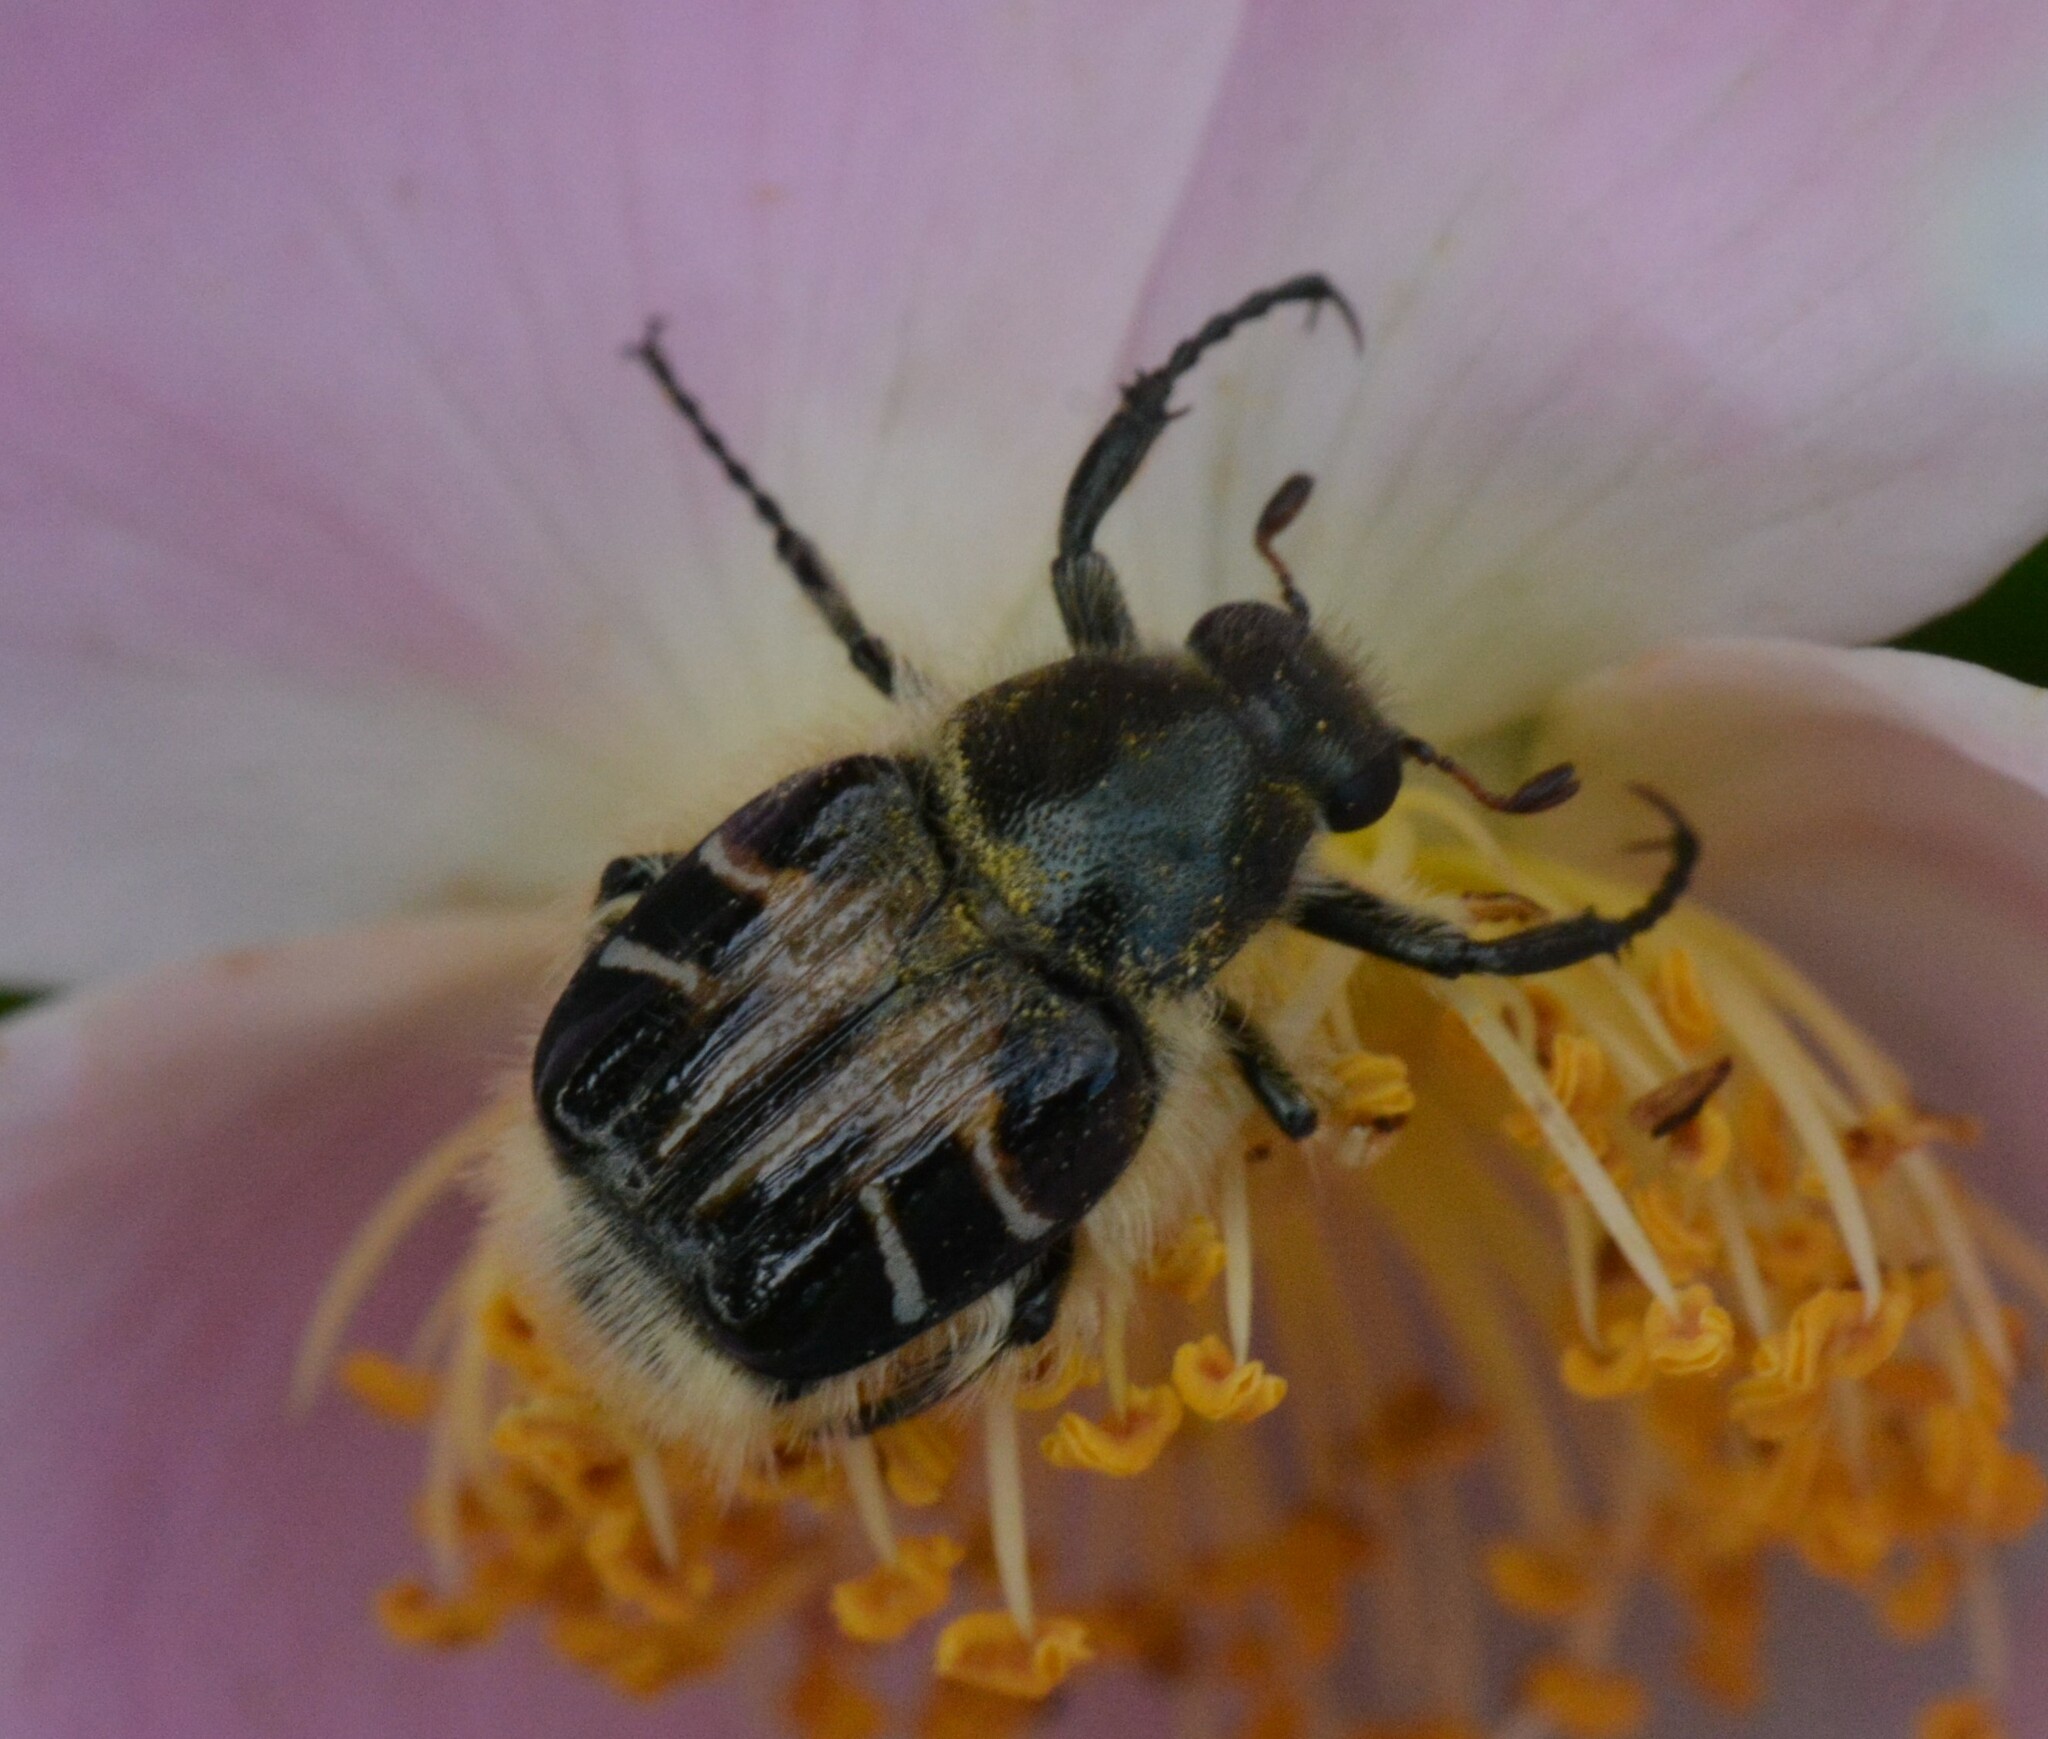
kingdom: Animalia
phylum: Arthropoda
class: Insecta
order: Coleoptera
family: Scarabaeidae
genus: Trichiotinus
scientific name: Trichiotinus assimilis
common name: Bee-mimic beetle
